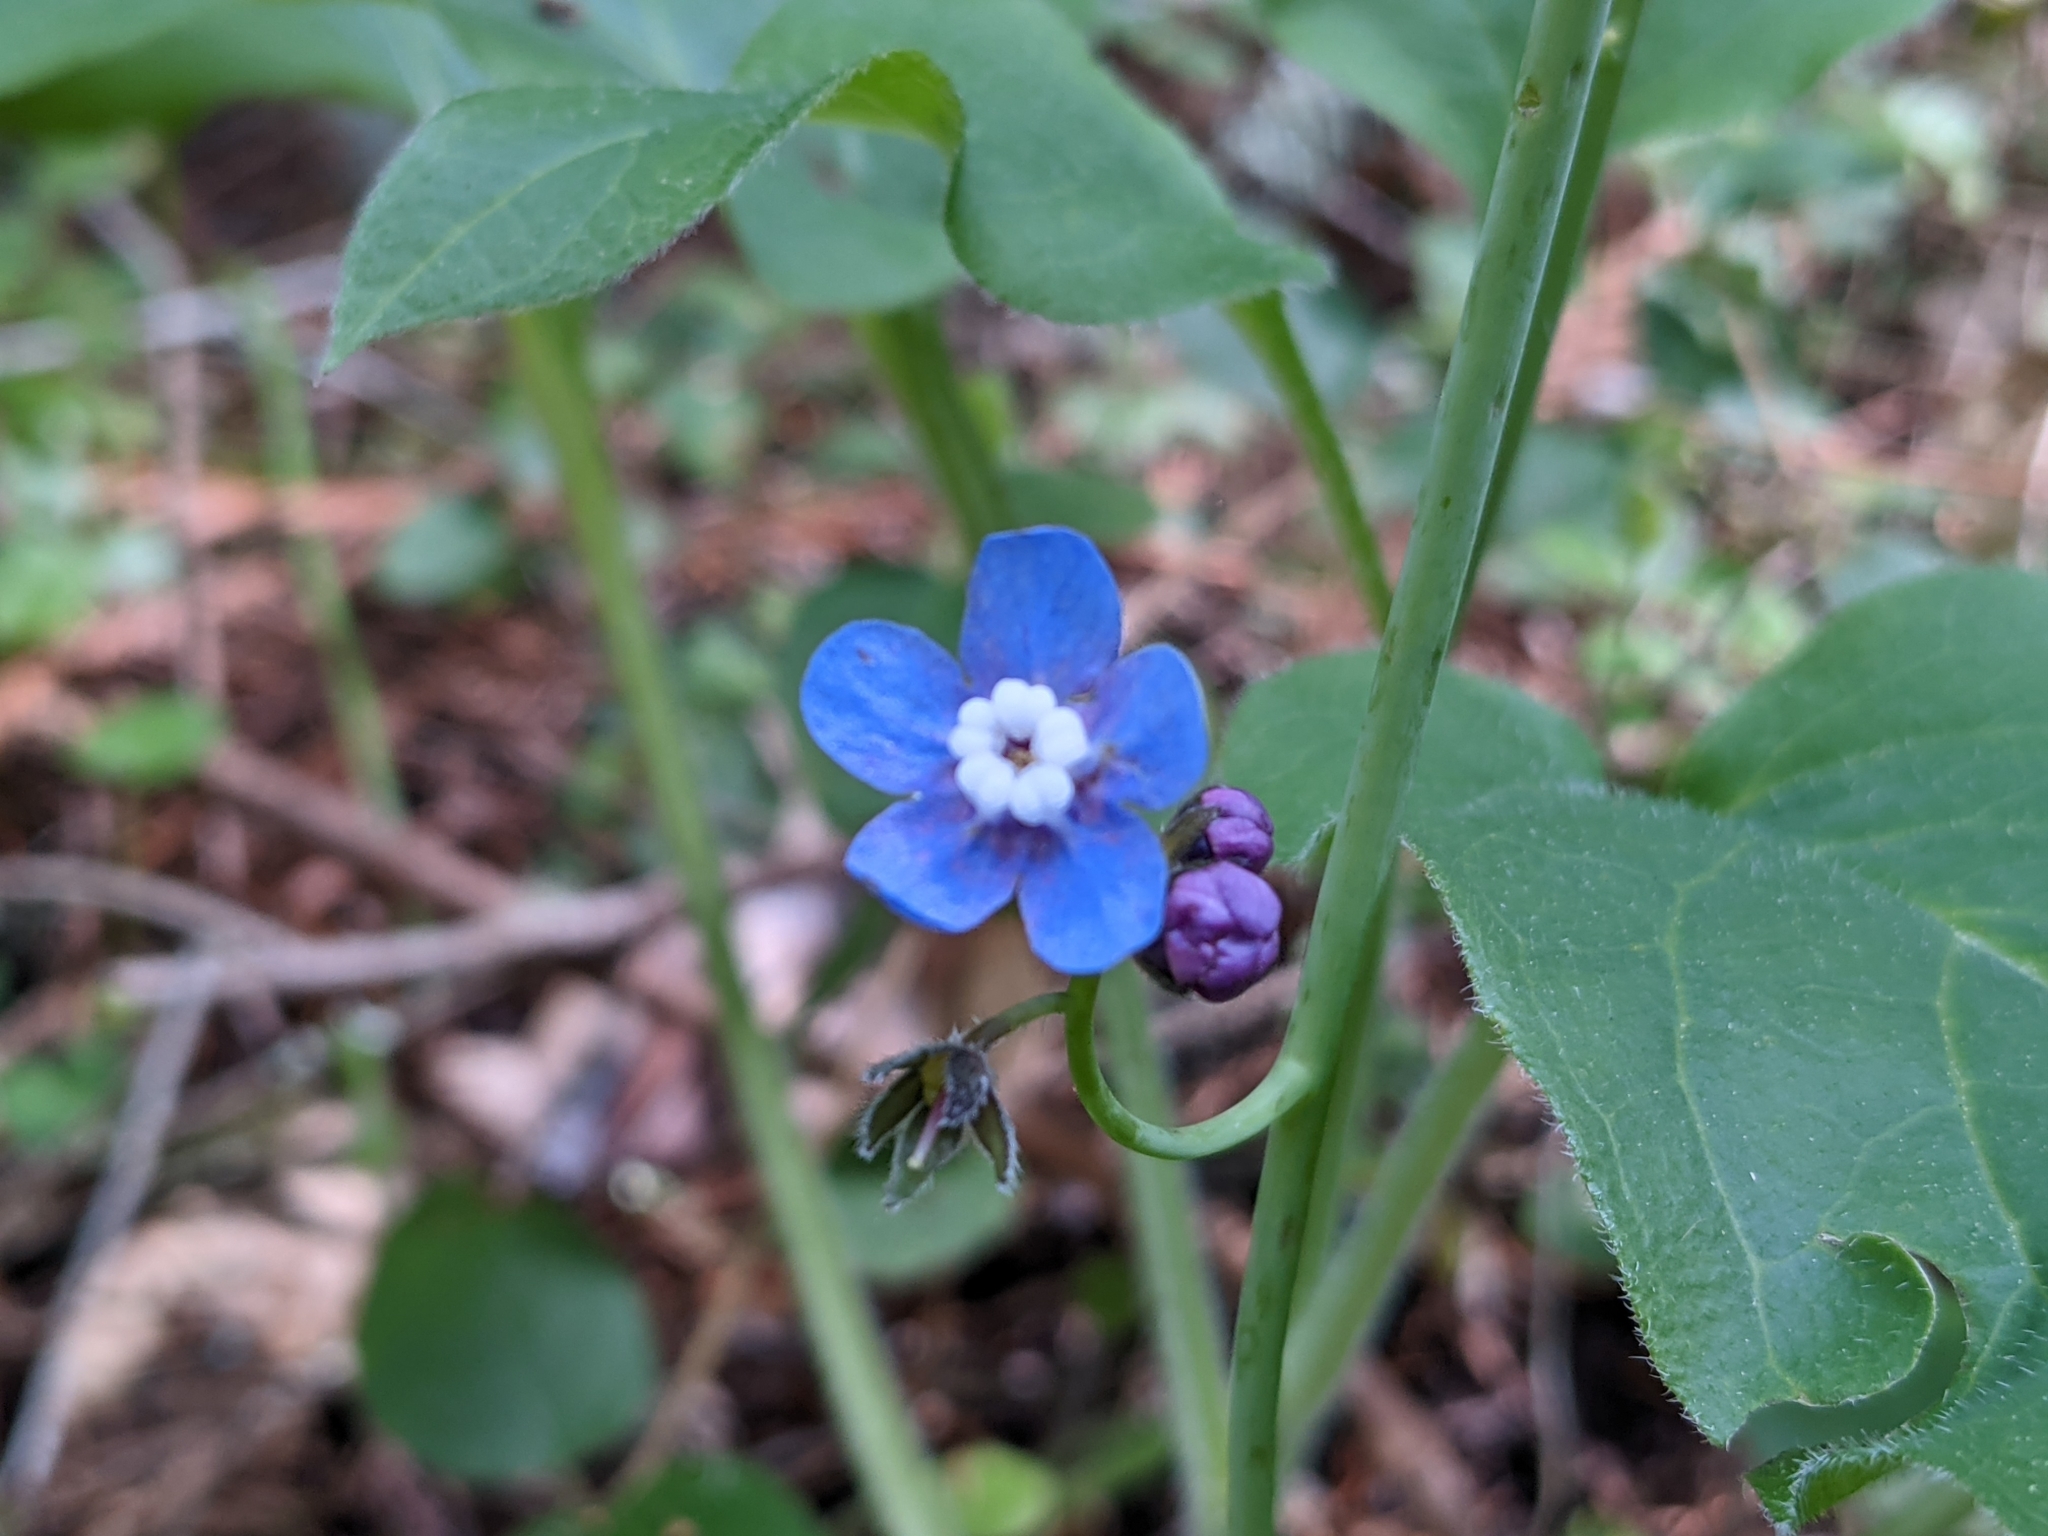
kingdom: Plantae
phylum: Tracheophyta
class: Magnoliopsida
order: Boraginales
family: Boraginaceae
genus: Adelinia
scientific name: Adelinia grande
